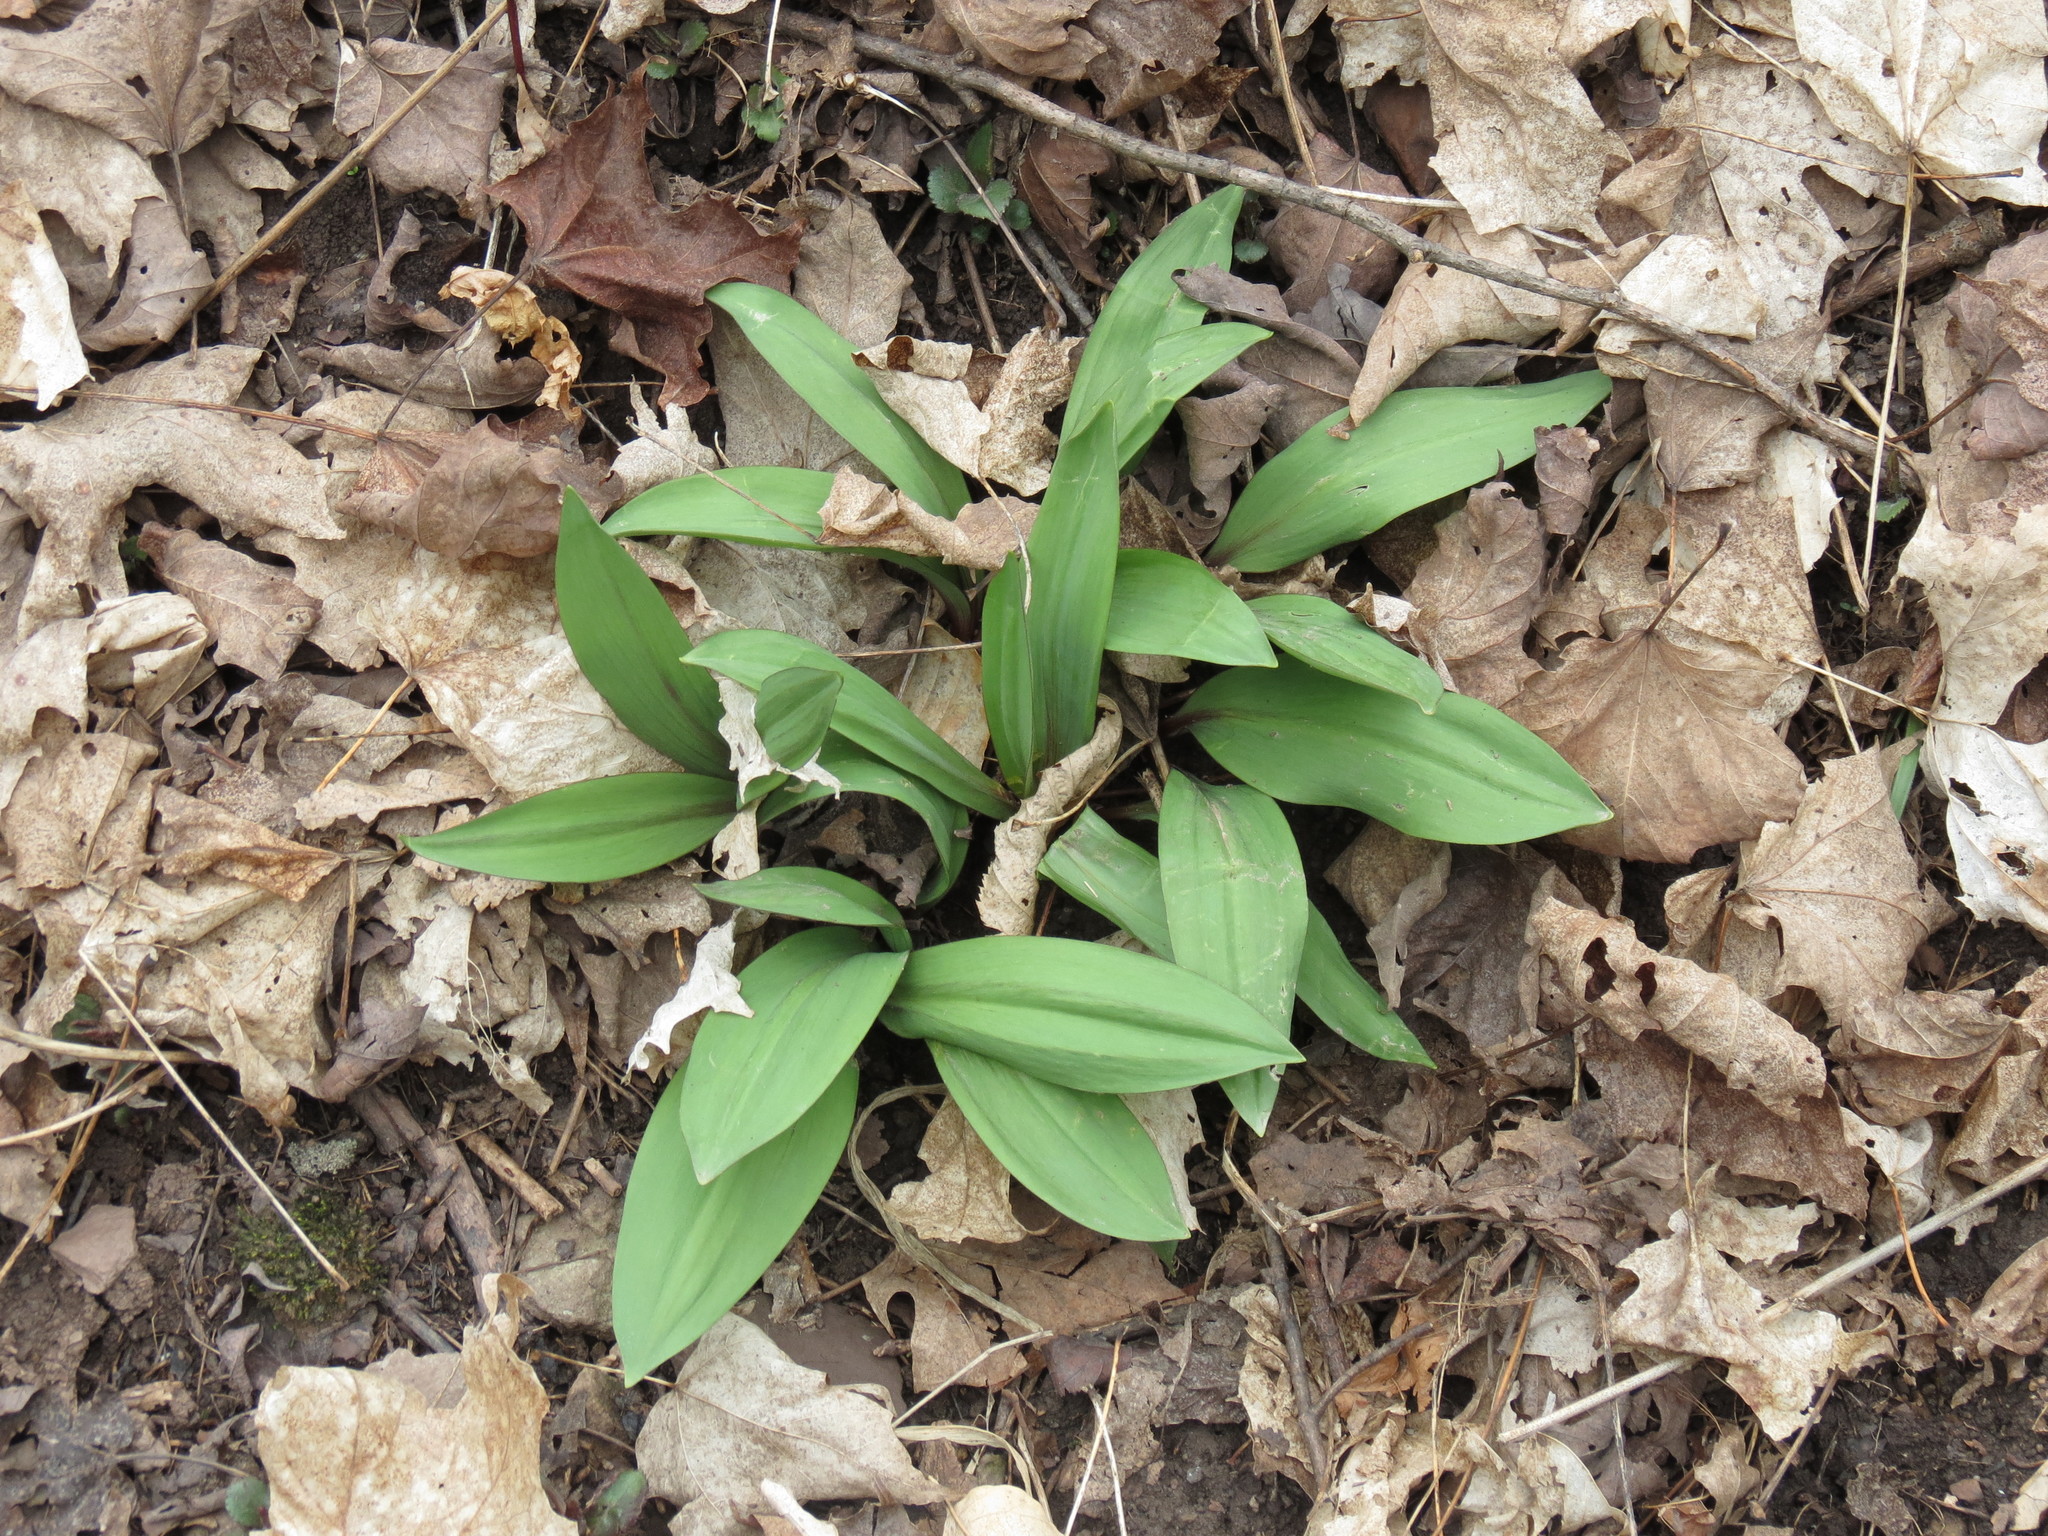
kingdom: Plantae
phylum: Tracheophyta
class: Liliopsida
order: Asparagales
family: Amaryllidaceae
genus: Allium
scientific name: Allium tricoccum
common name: Ramp
